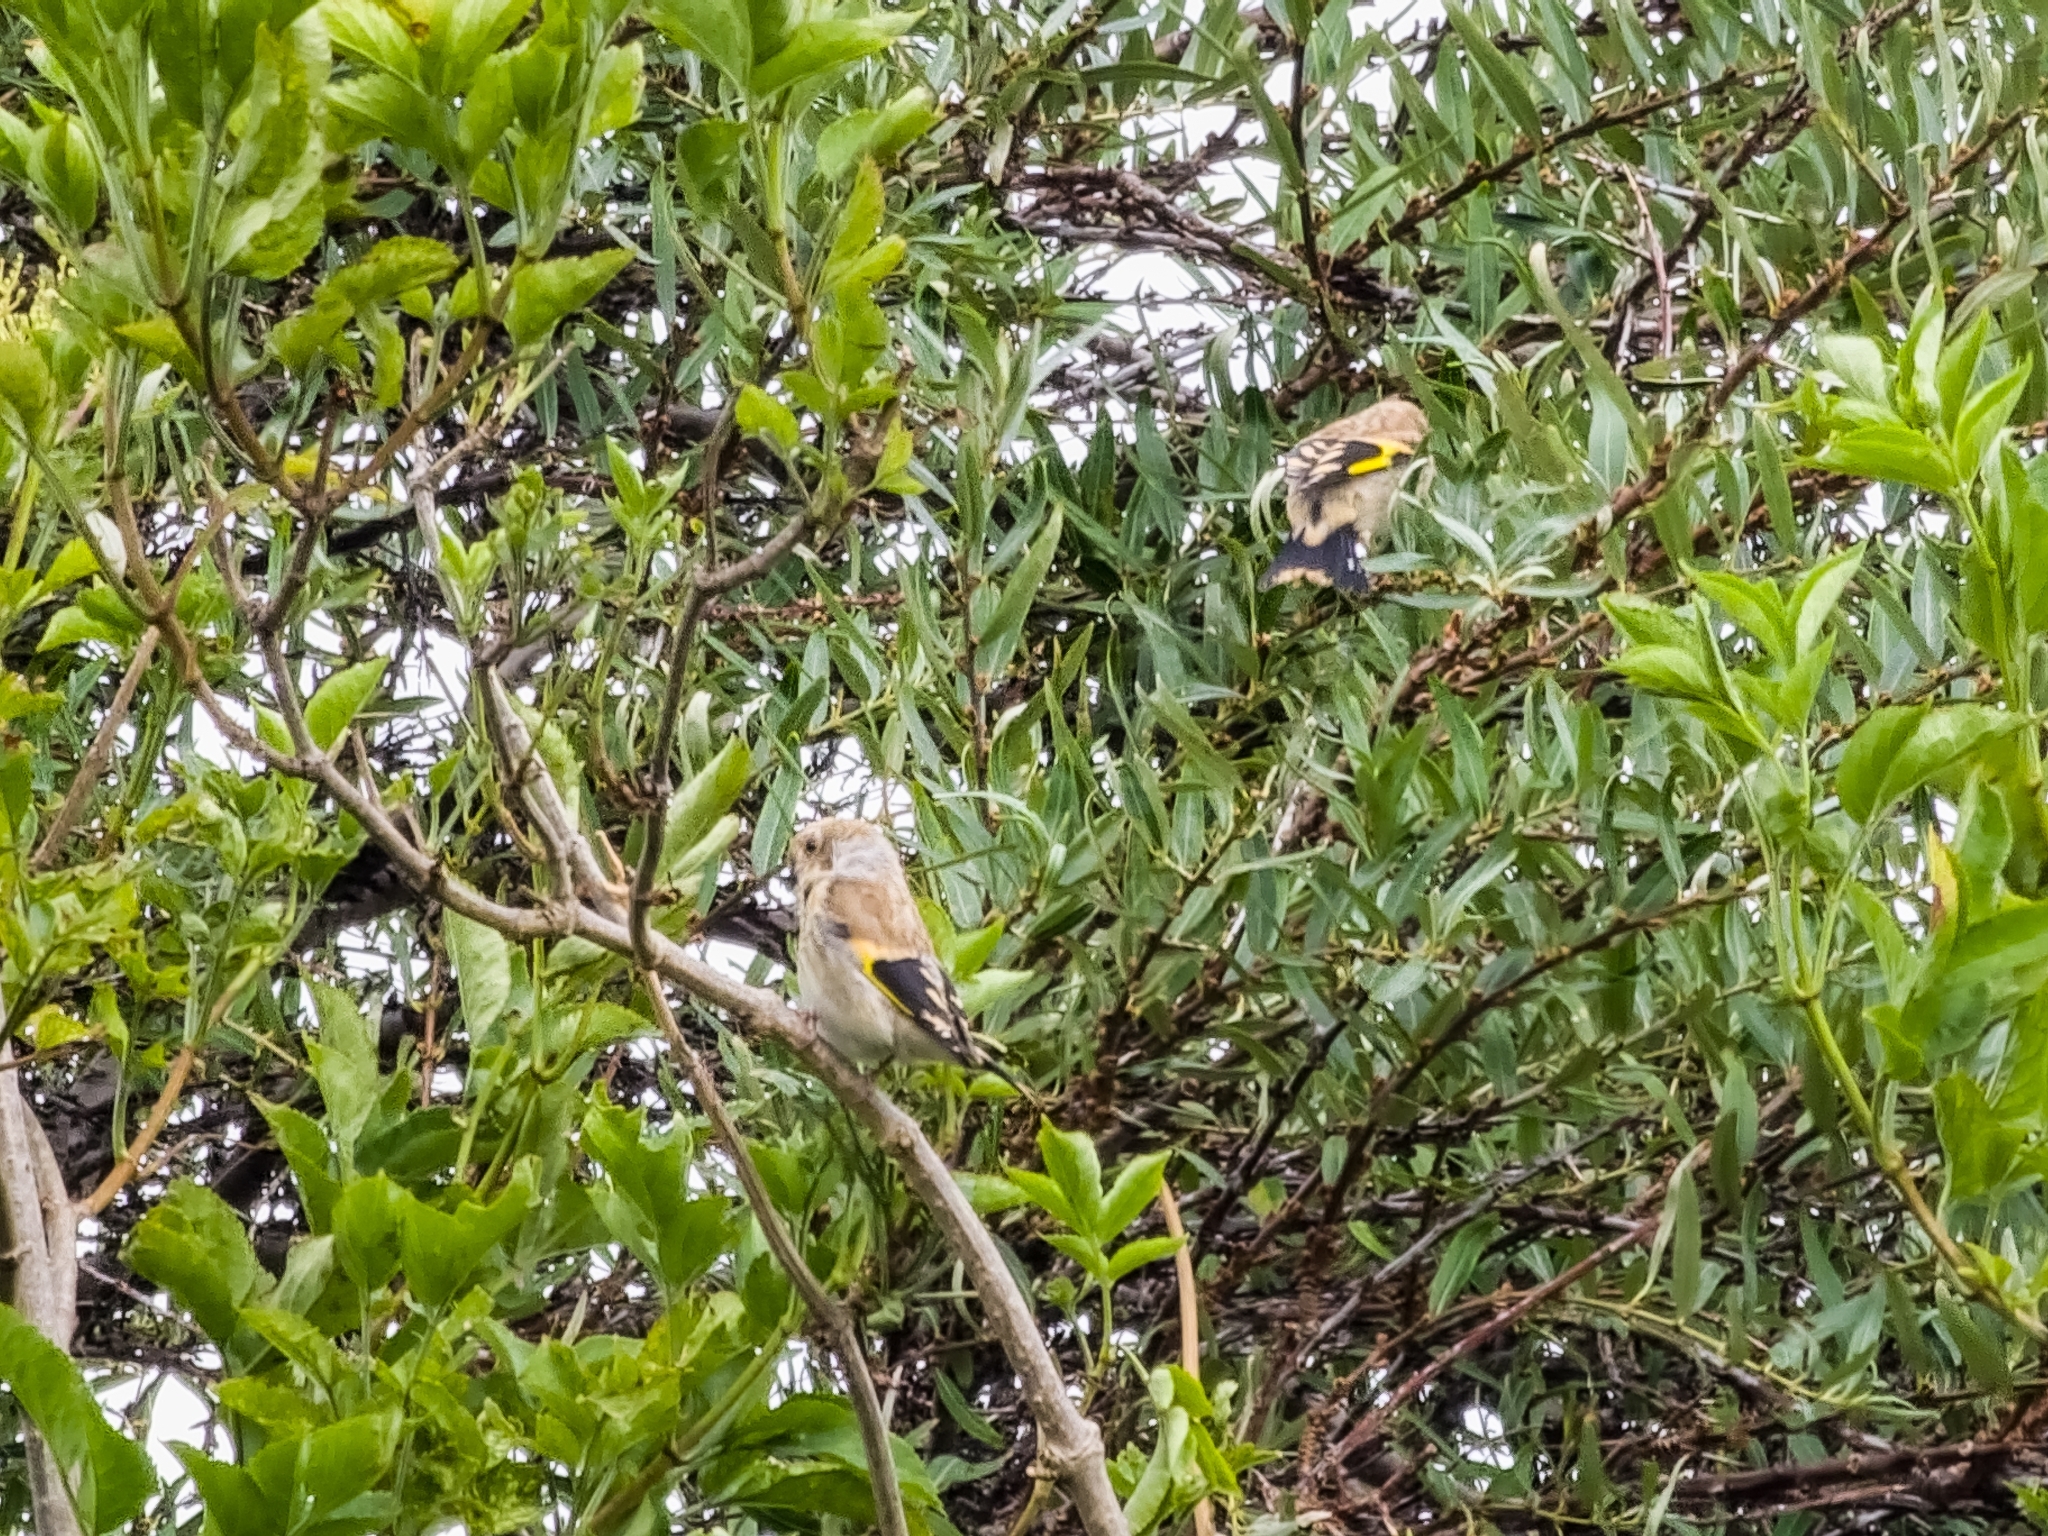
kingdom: Animalia
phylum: Chordata
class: Aves
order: Passeriformes
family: Fringillidae
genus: Carduelis
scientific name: Carduelis carduelis
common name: European goldfinch
